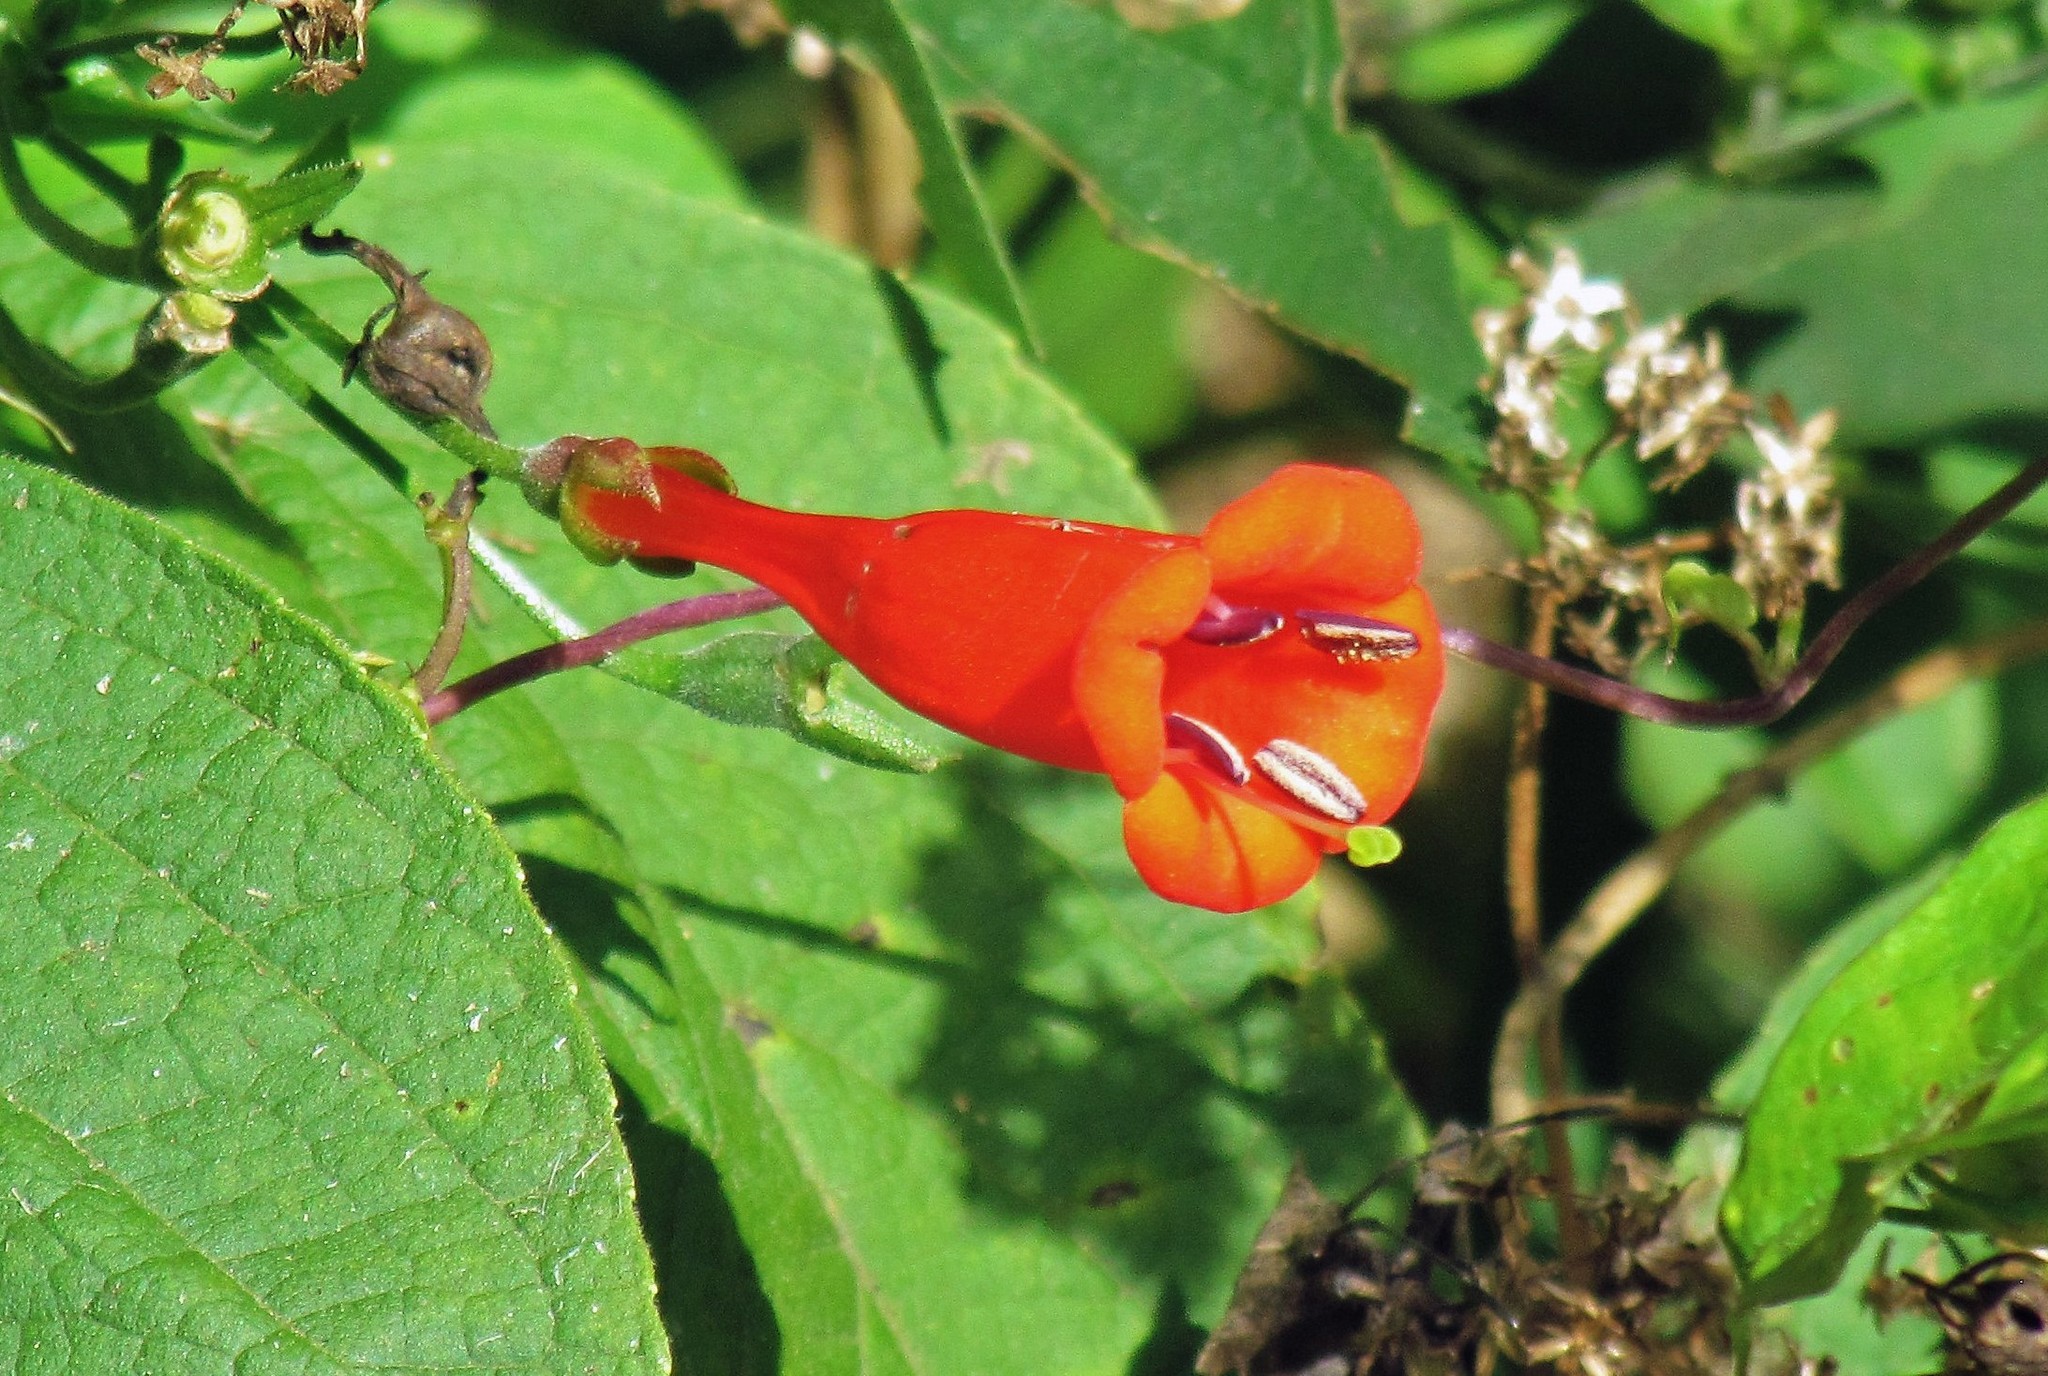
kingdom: Plantae
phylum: Tracheophyta
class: Magnoliopsida
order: Gentianales
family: Rubiaceae
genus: Manettia
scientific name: Manettia cordifolia
